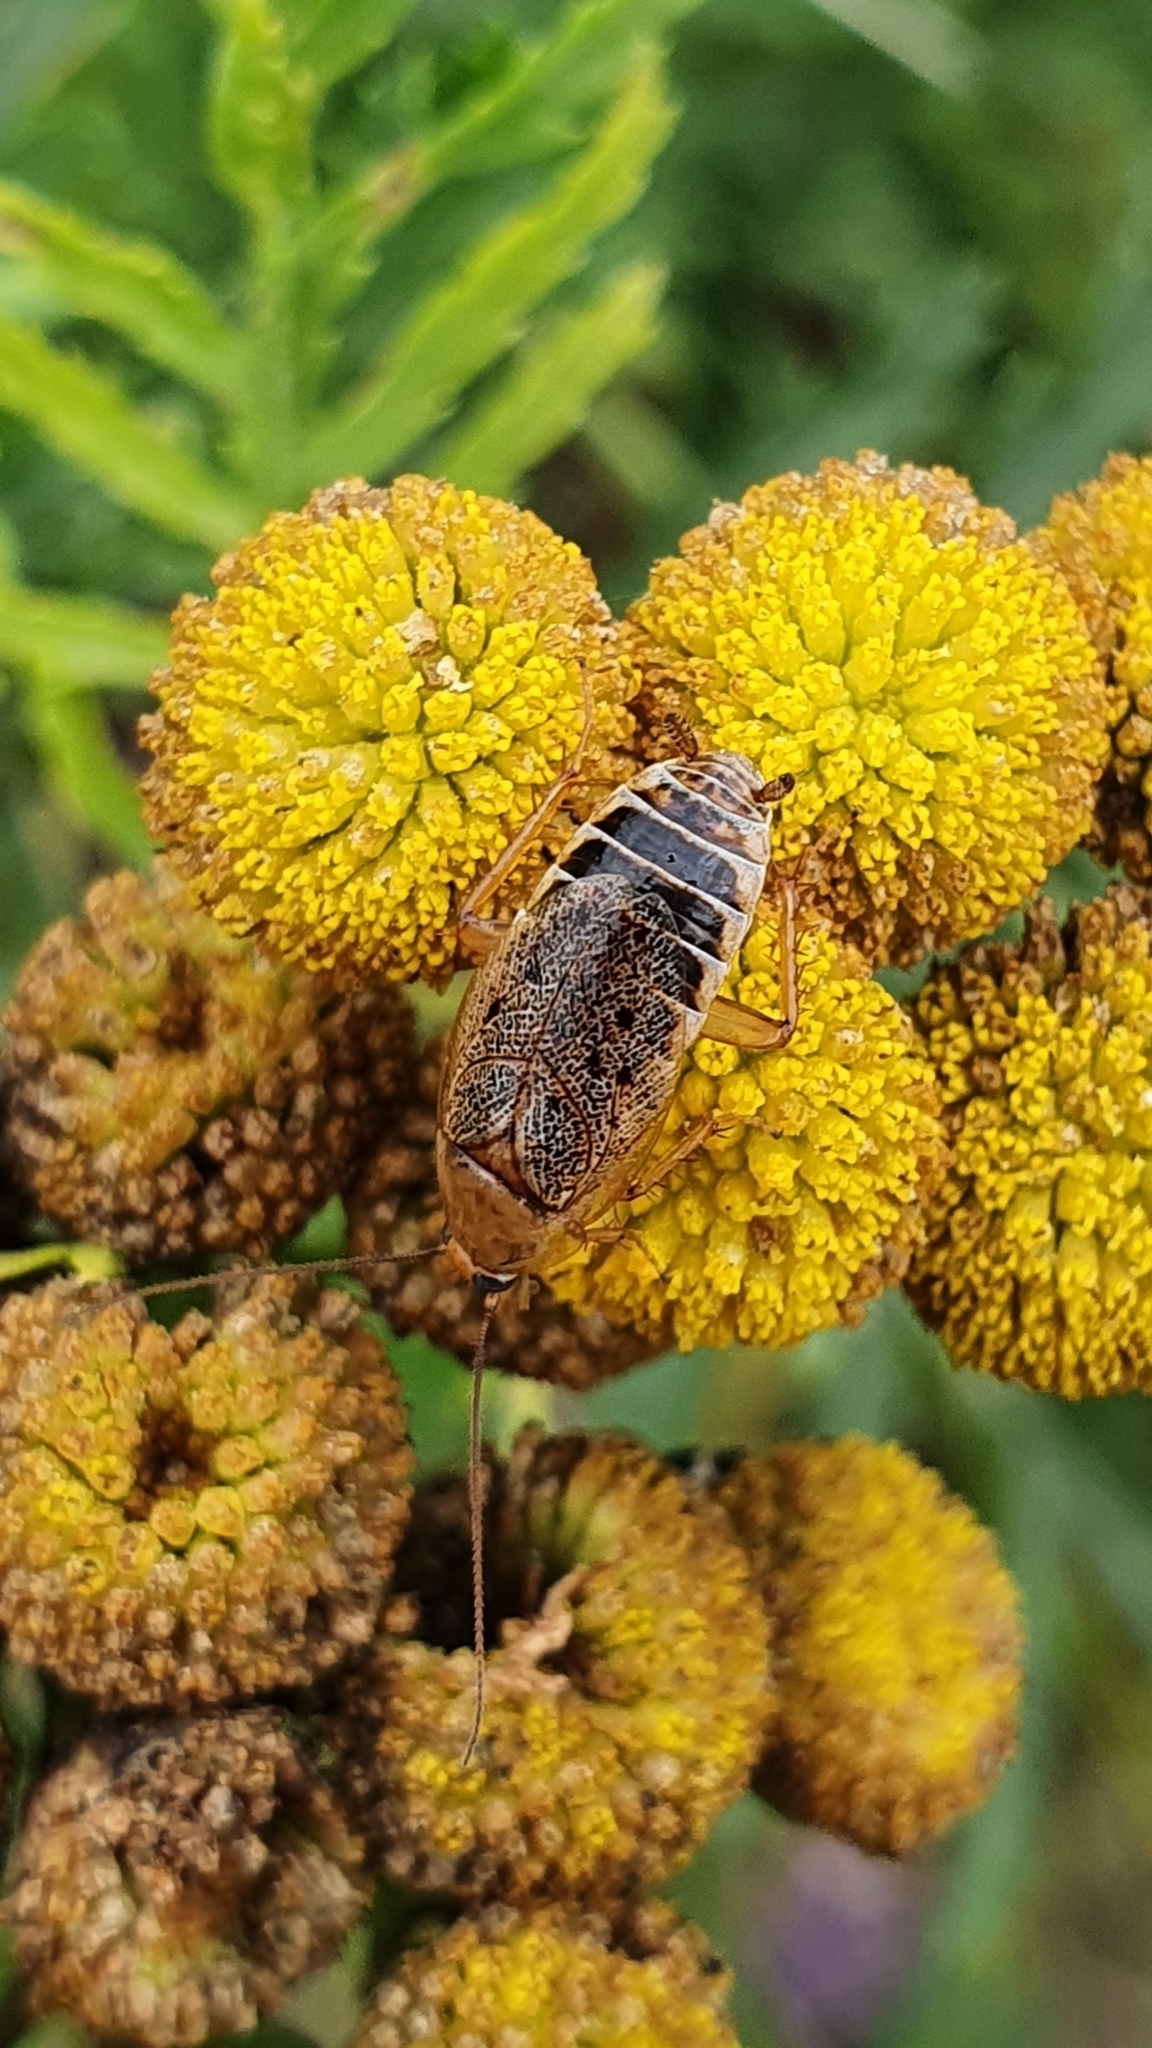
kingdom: Animalia
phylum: Arthropoda
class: Insecta
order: Blattodea
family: Ectobiidae
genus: Ectobius
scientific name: Ectobius lapponicus
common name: Dusky cockroach
